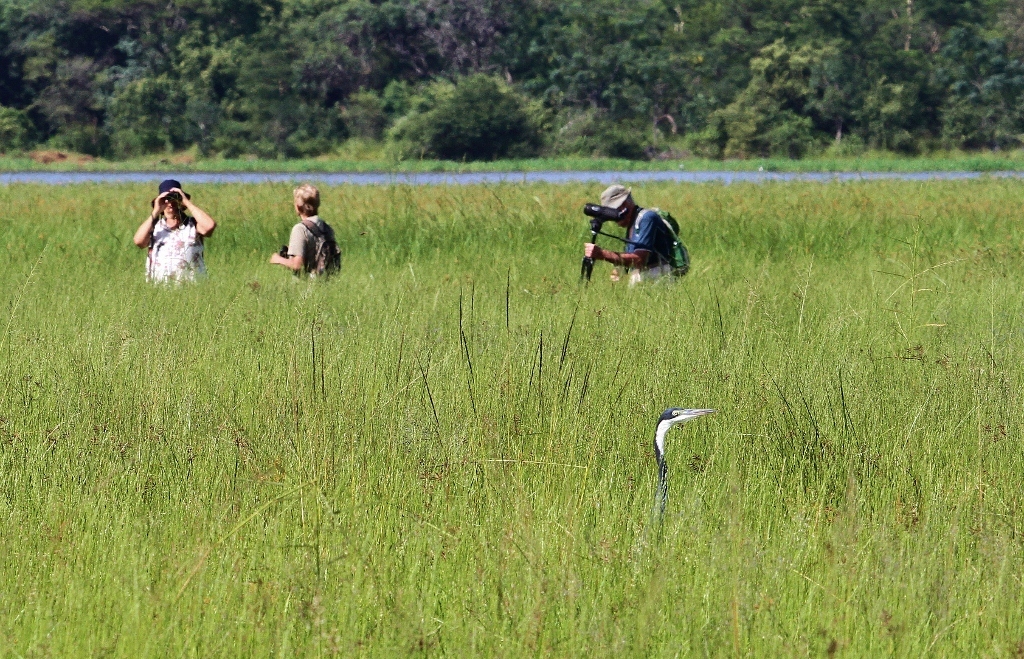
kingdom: Animalia
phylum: Chordata
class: Aves
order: Pelecaniformes
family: Ardeidae
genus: Ardea
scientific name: Ardea melanocephala
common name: Black-headed heron
